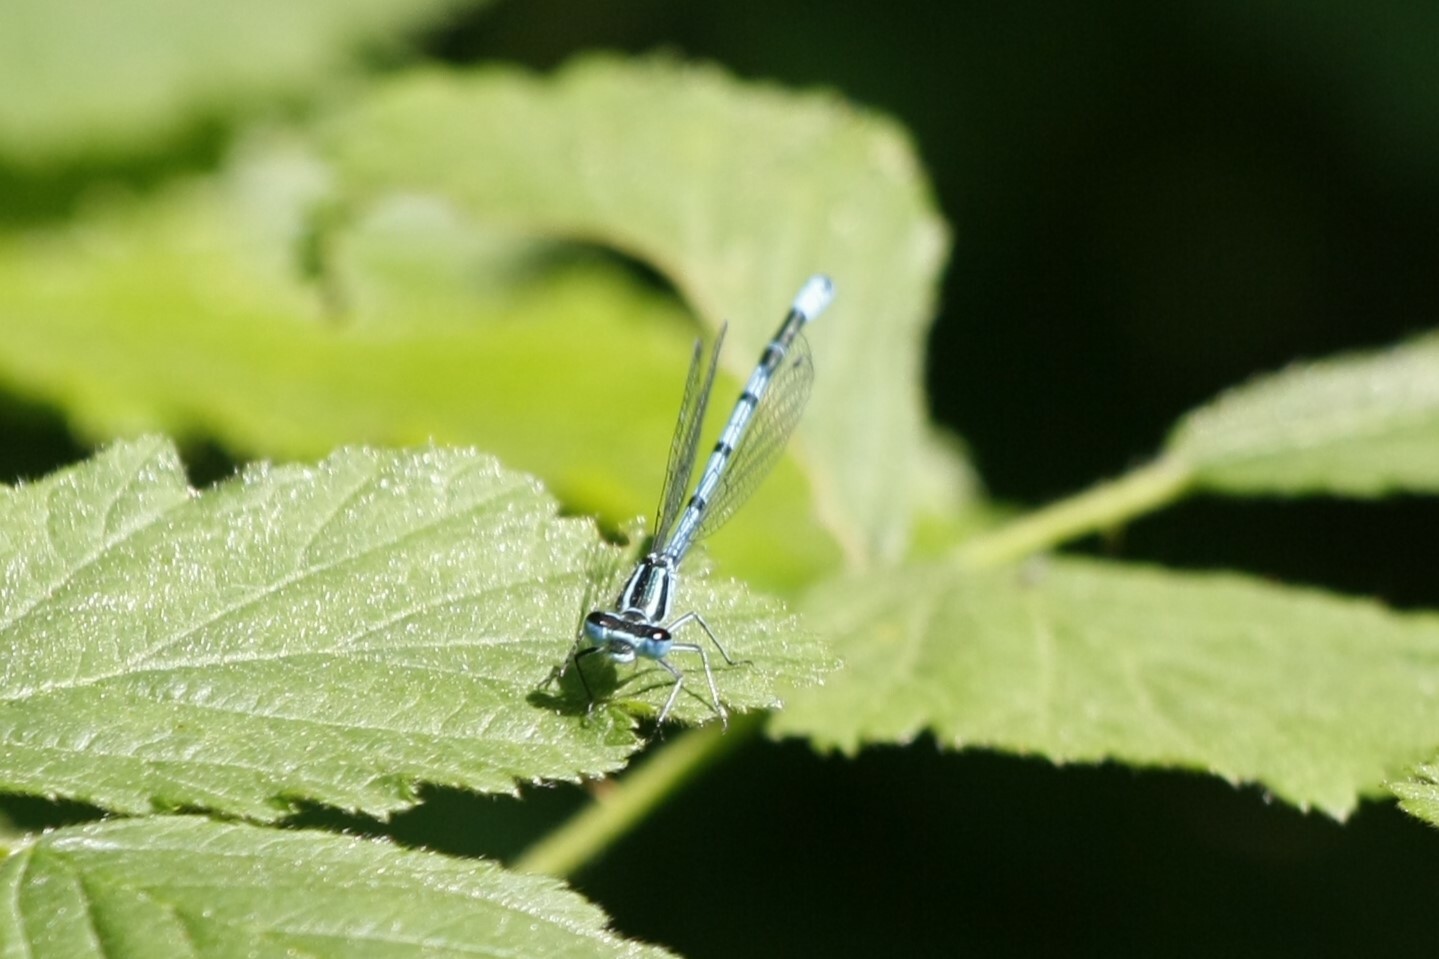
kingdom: Animalia
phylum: Arthropoda
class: Insecta
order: Odonata
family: Coenagrionidae
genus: Coenagrion
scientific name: Coenagrion puella
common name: Azure damselfly
